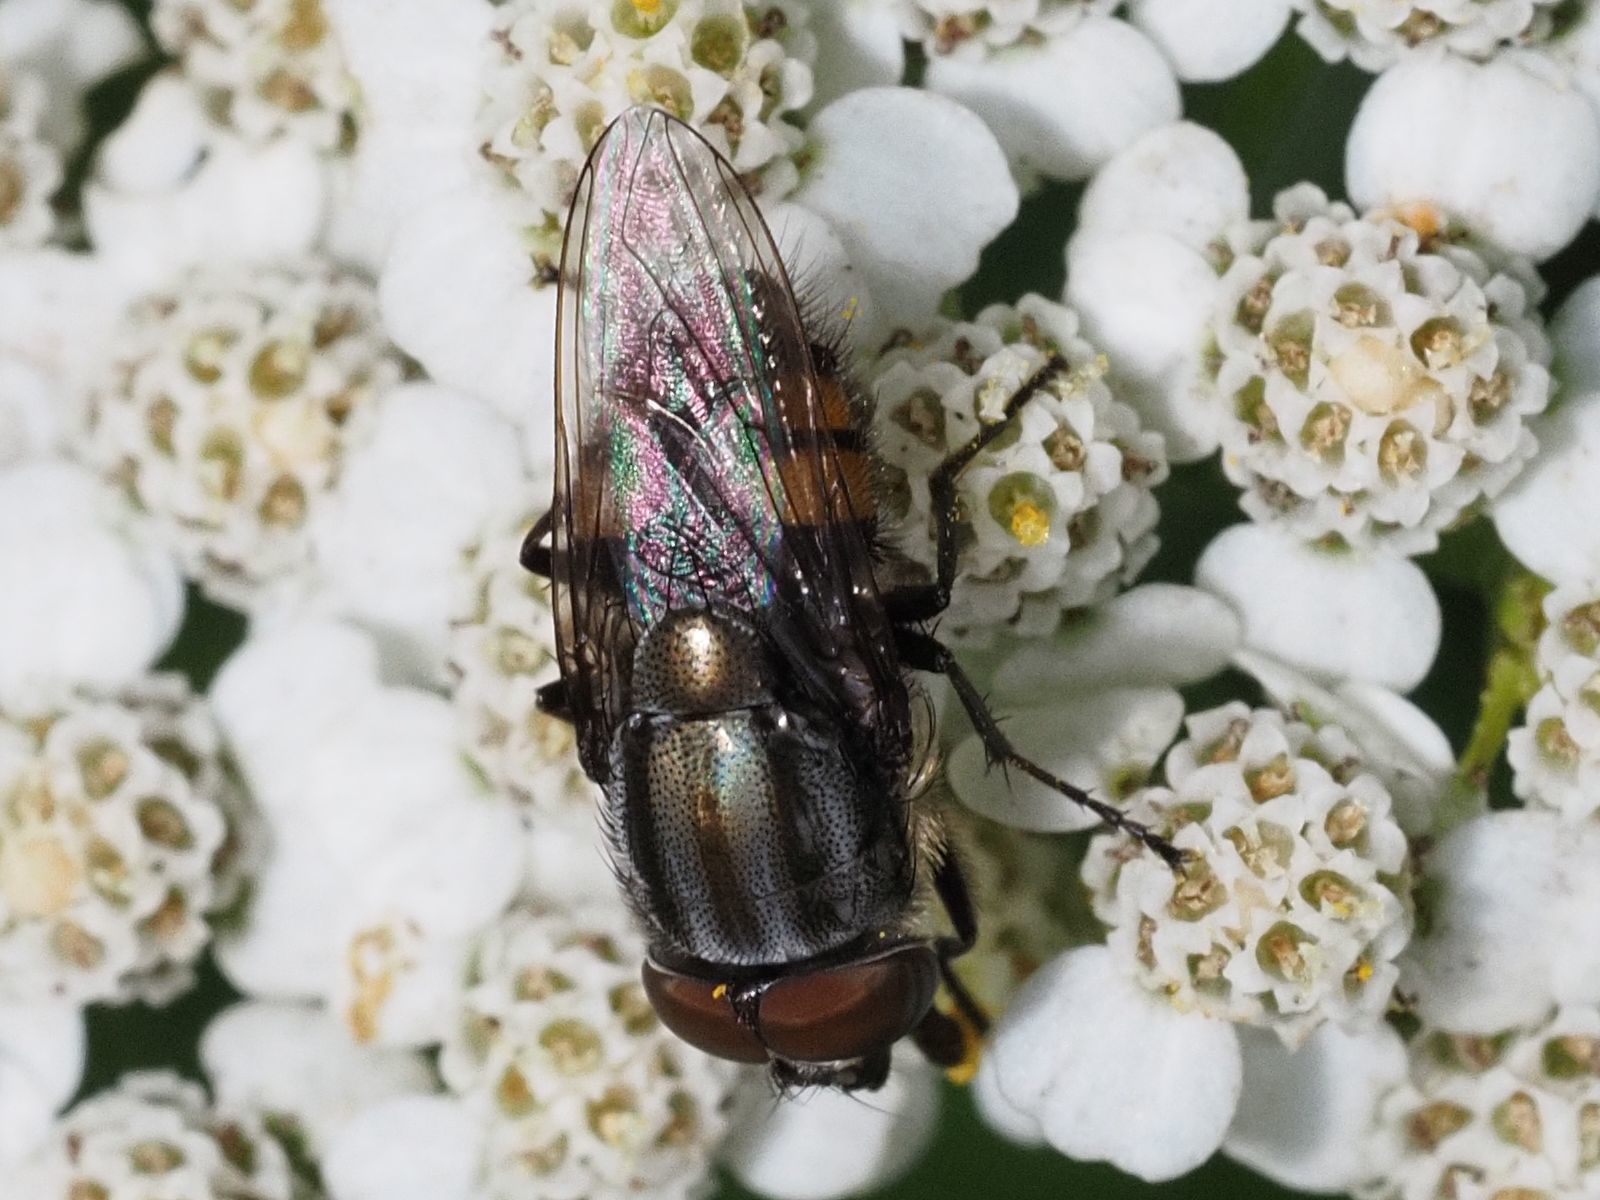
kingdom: Animalia
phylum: Arthropoda
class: Insecta
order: Diptera
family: Calliphoridae
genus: Stomorhina
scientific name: Stomorhina lunata
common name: Locust blowfly
